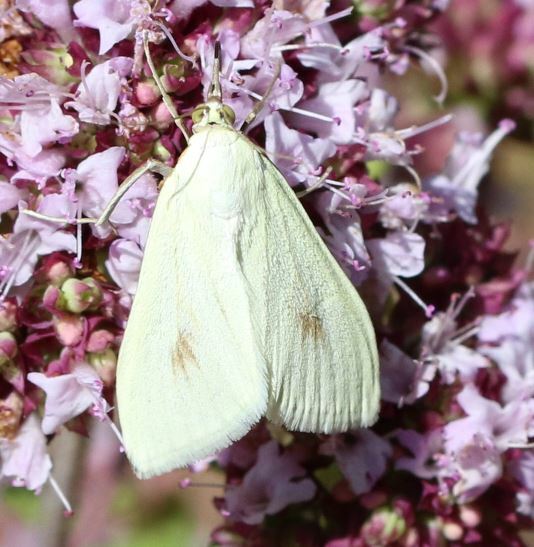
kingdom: Animalia
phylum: Arthropoda
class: Insecta
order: Lepidoptera
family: Crambidae
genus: Sitochroa
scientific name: Sitochroa palealis
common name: Greenish-yellow sitochroa moth
